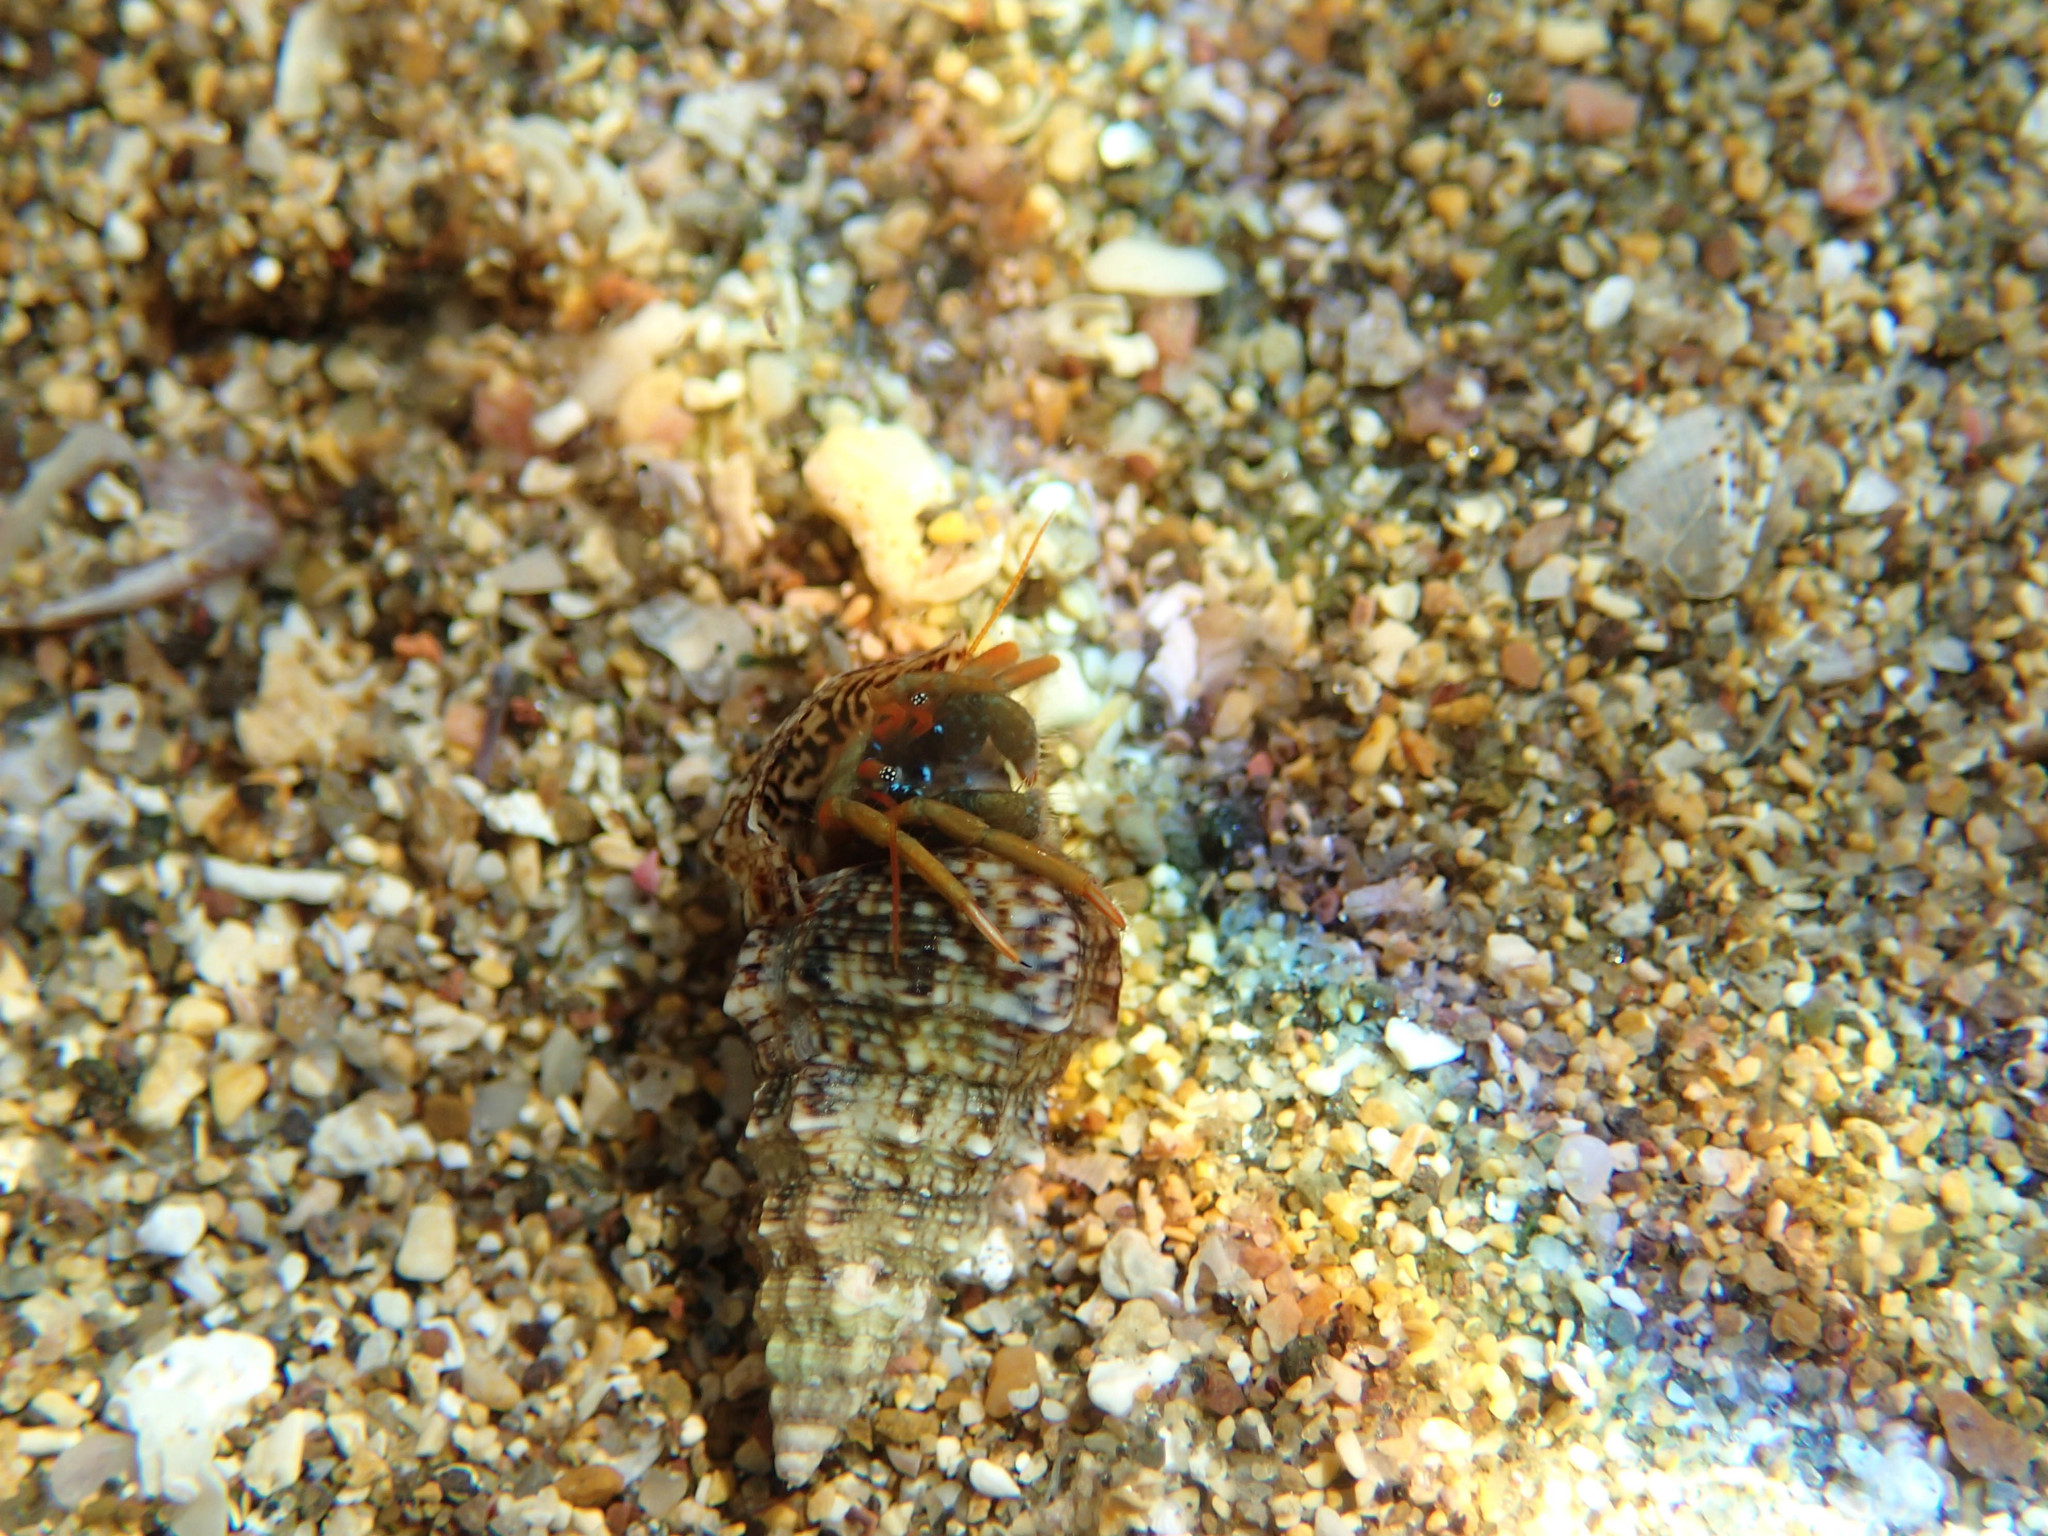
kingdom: Animalia
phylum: Arthropoda
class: Malacostraca
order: Decapoda
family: Diogenidae
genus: Clibanarius
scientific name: Clibanarius erythropus
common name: Hermit crab
